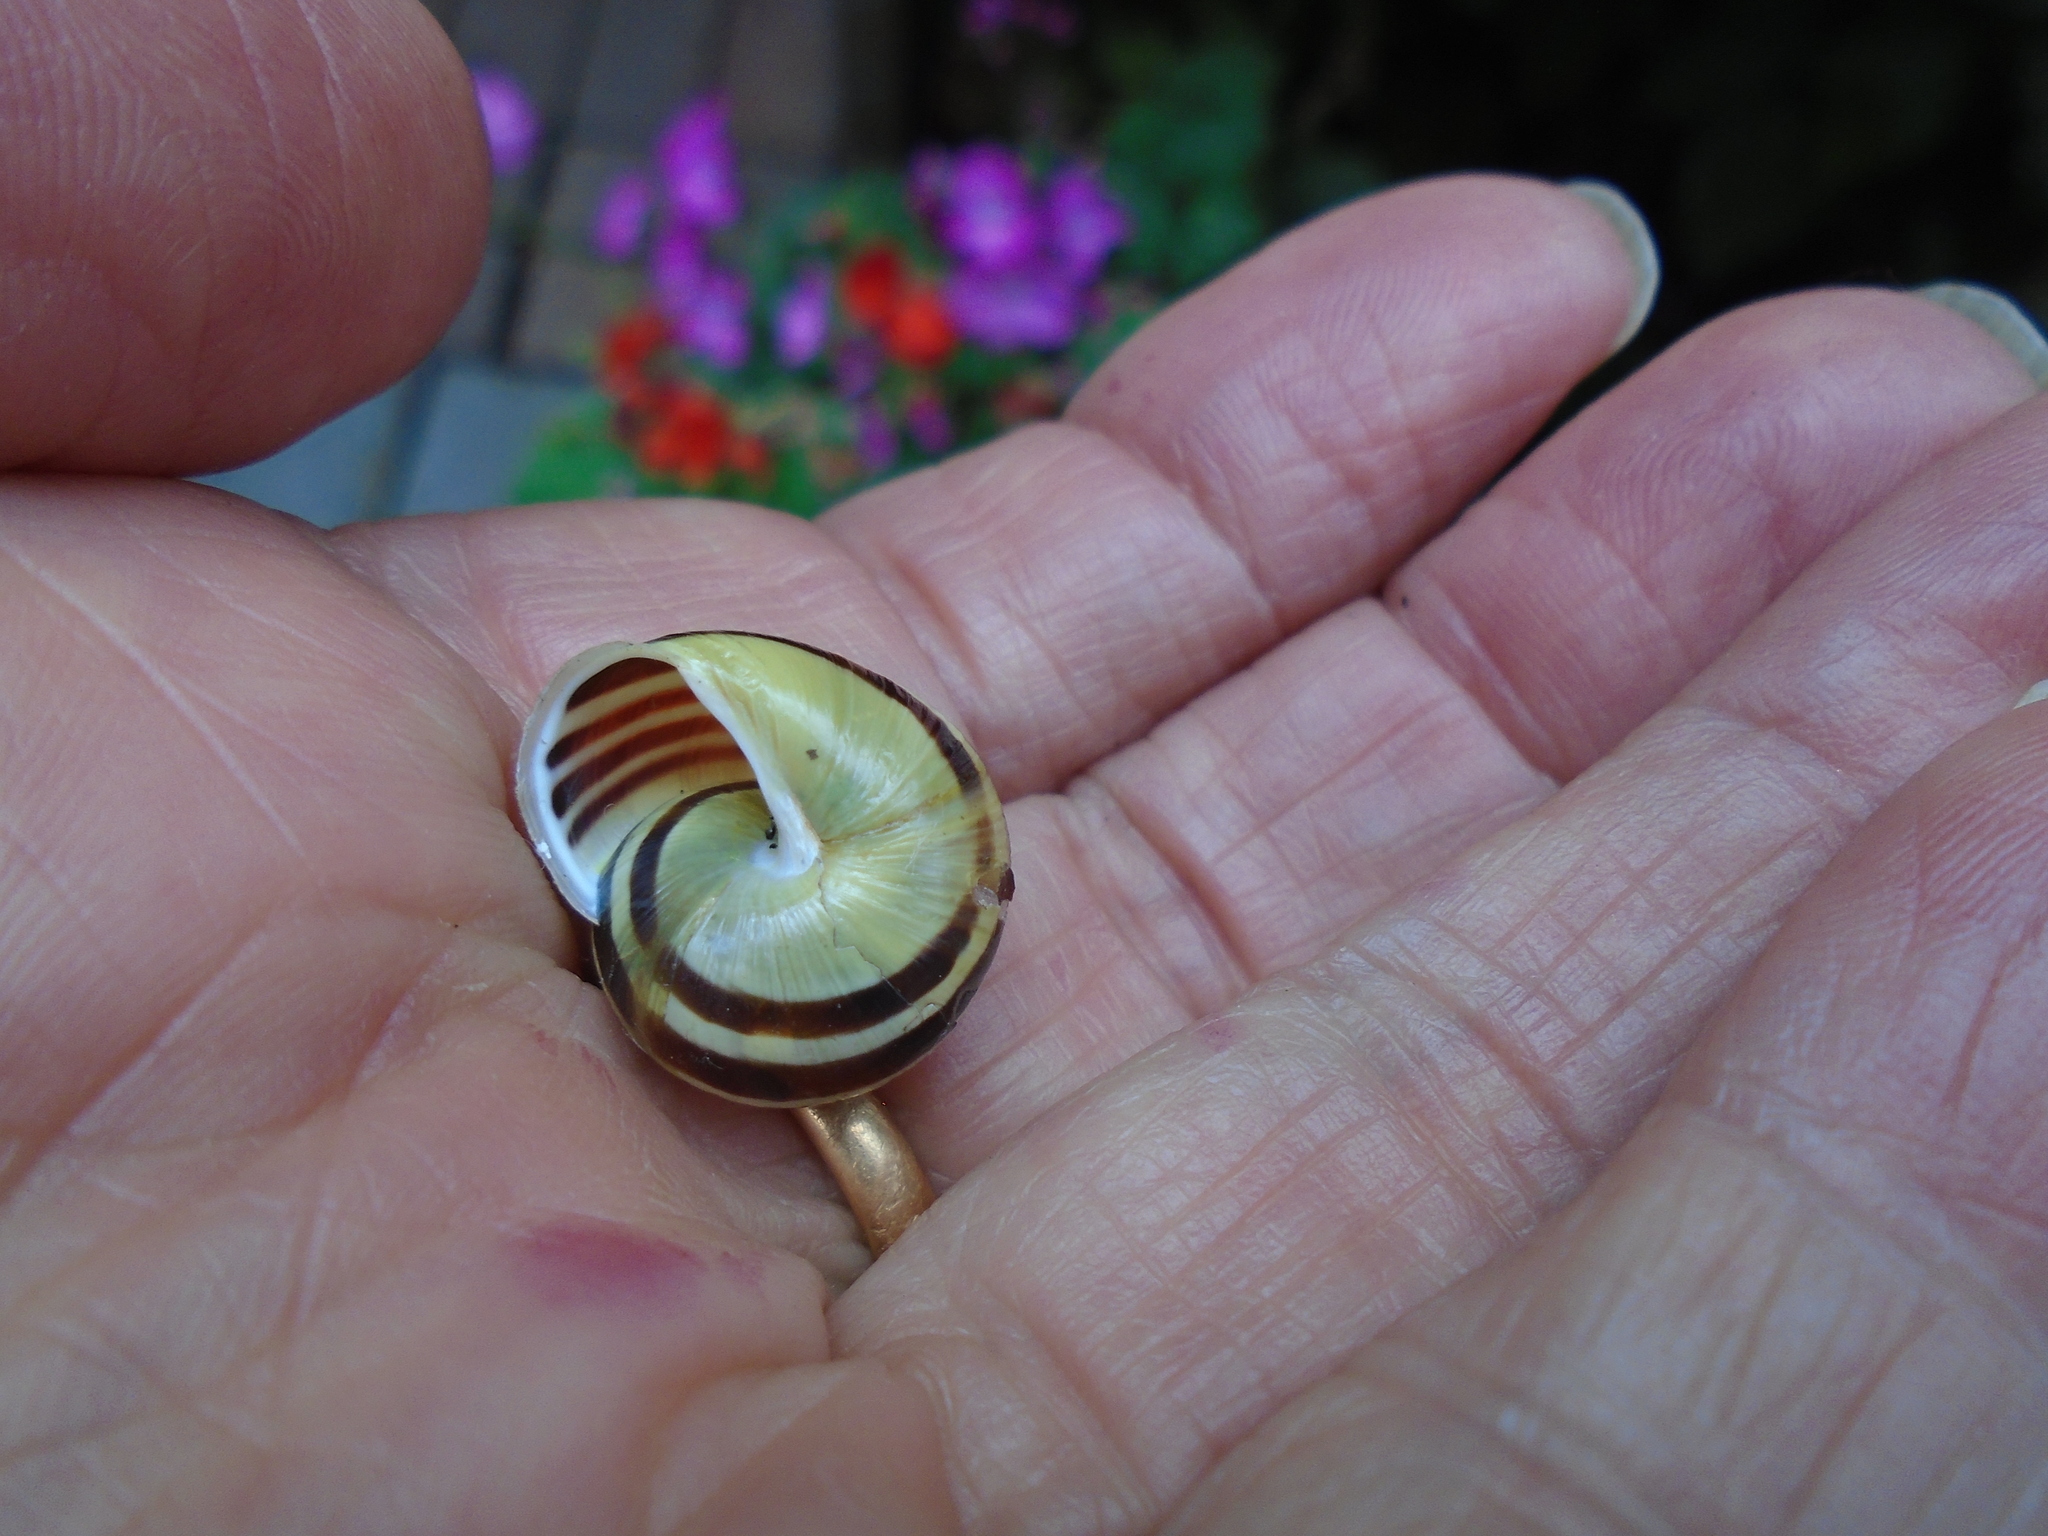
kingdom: Animalia
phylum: Mollusca
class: Gastropoda
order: Stylommatophora
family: Helicidae
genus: Cepaea
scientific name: Cepaea hortensis
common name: White-lip gardensnail
